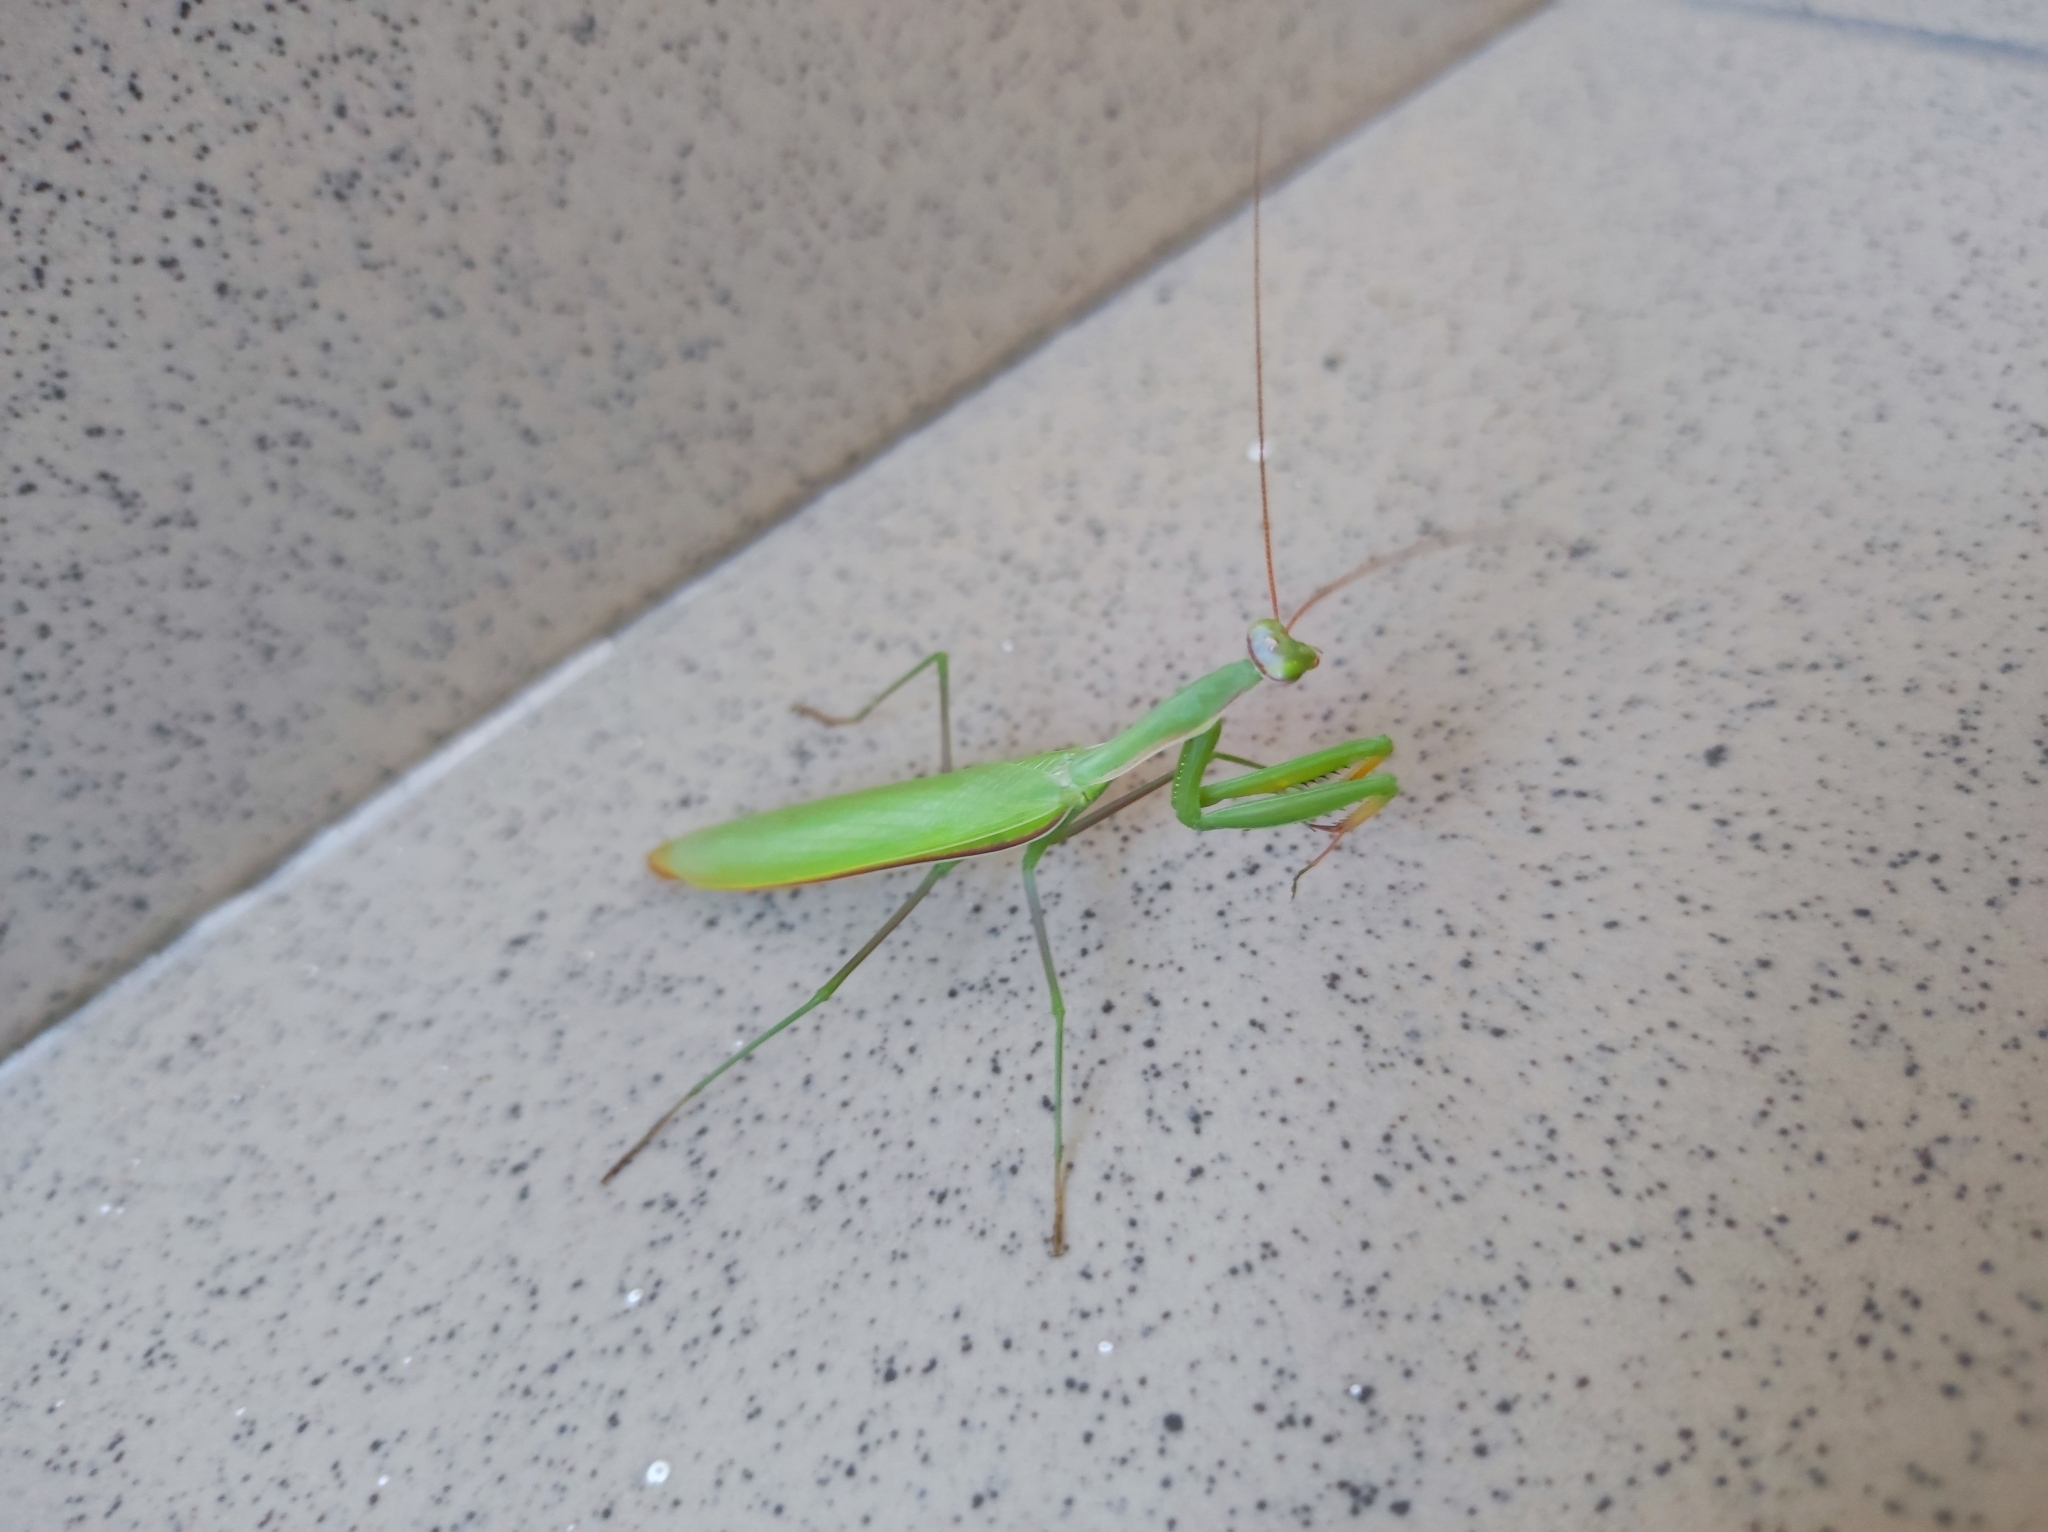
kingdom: Animalia
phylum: Arthropoda
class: Insecta
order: Mantodea
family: Mantidae
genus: Mantis
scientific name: Mantis religiosa
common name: Praying mantis
